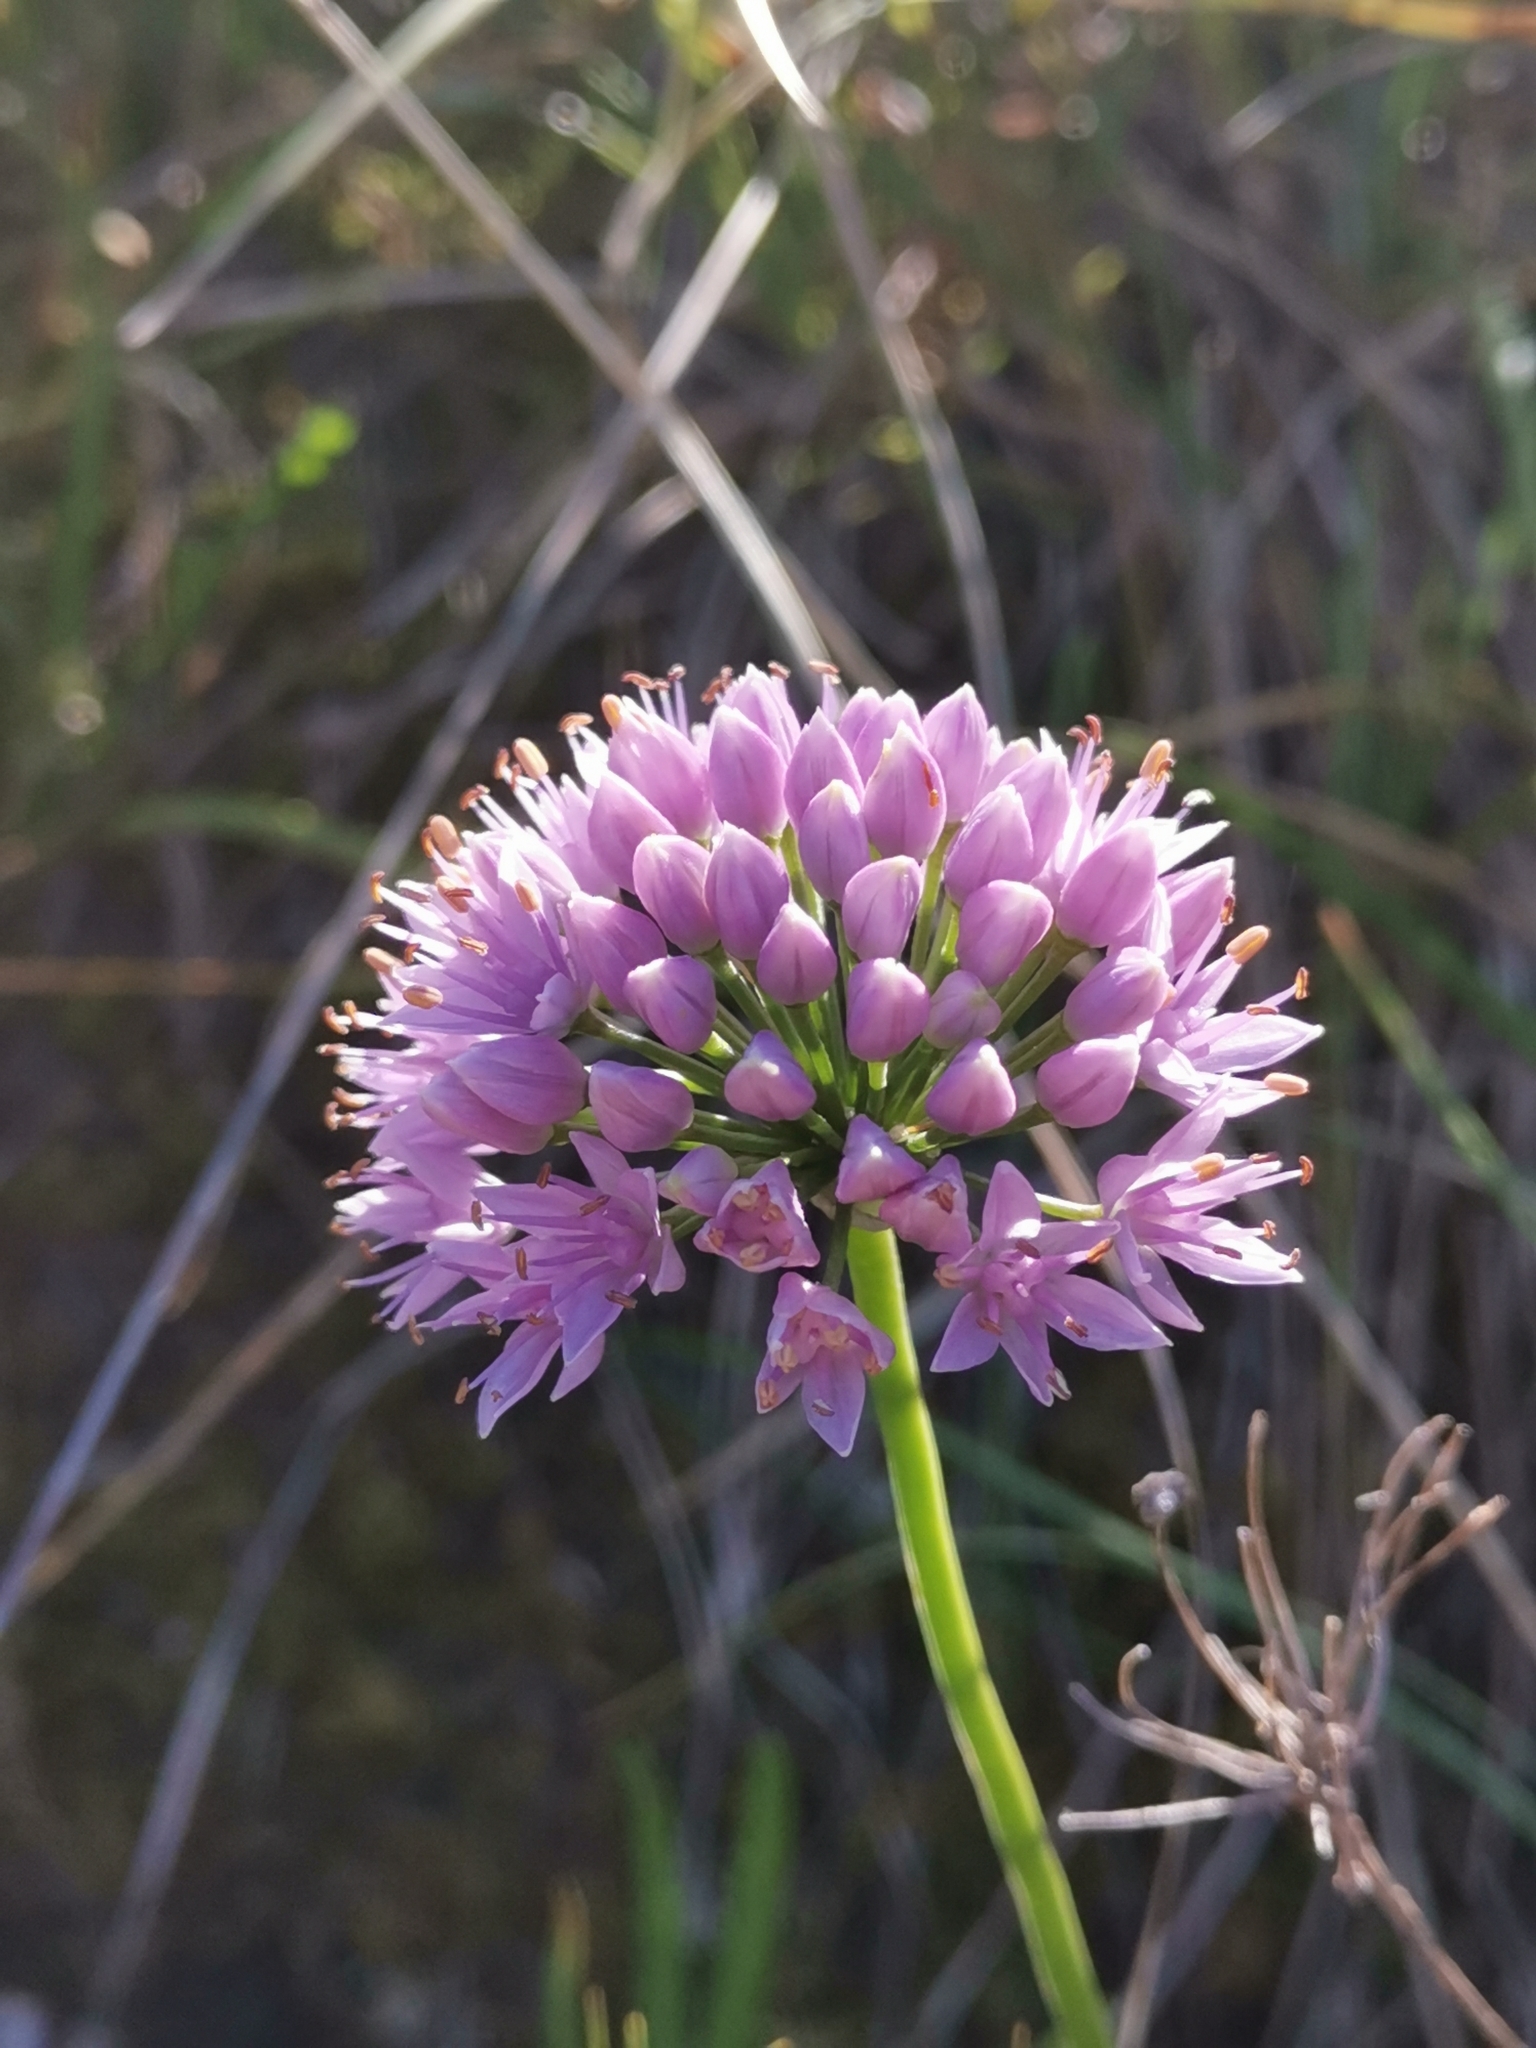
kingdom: Plantae
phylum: Tracheophyta
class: Liliopsida
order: Asparagales
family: Amaryllidaceae
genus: Allium
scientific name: Allium lusitanicum
